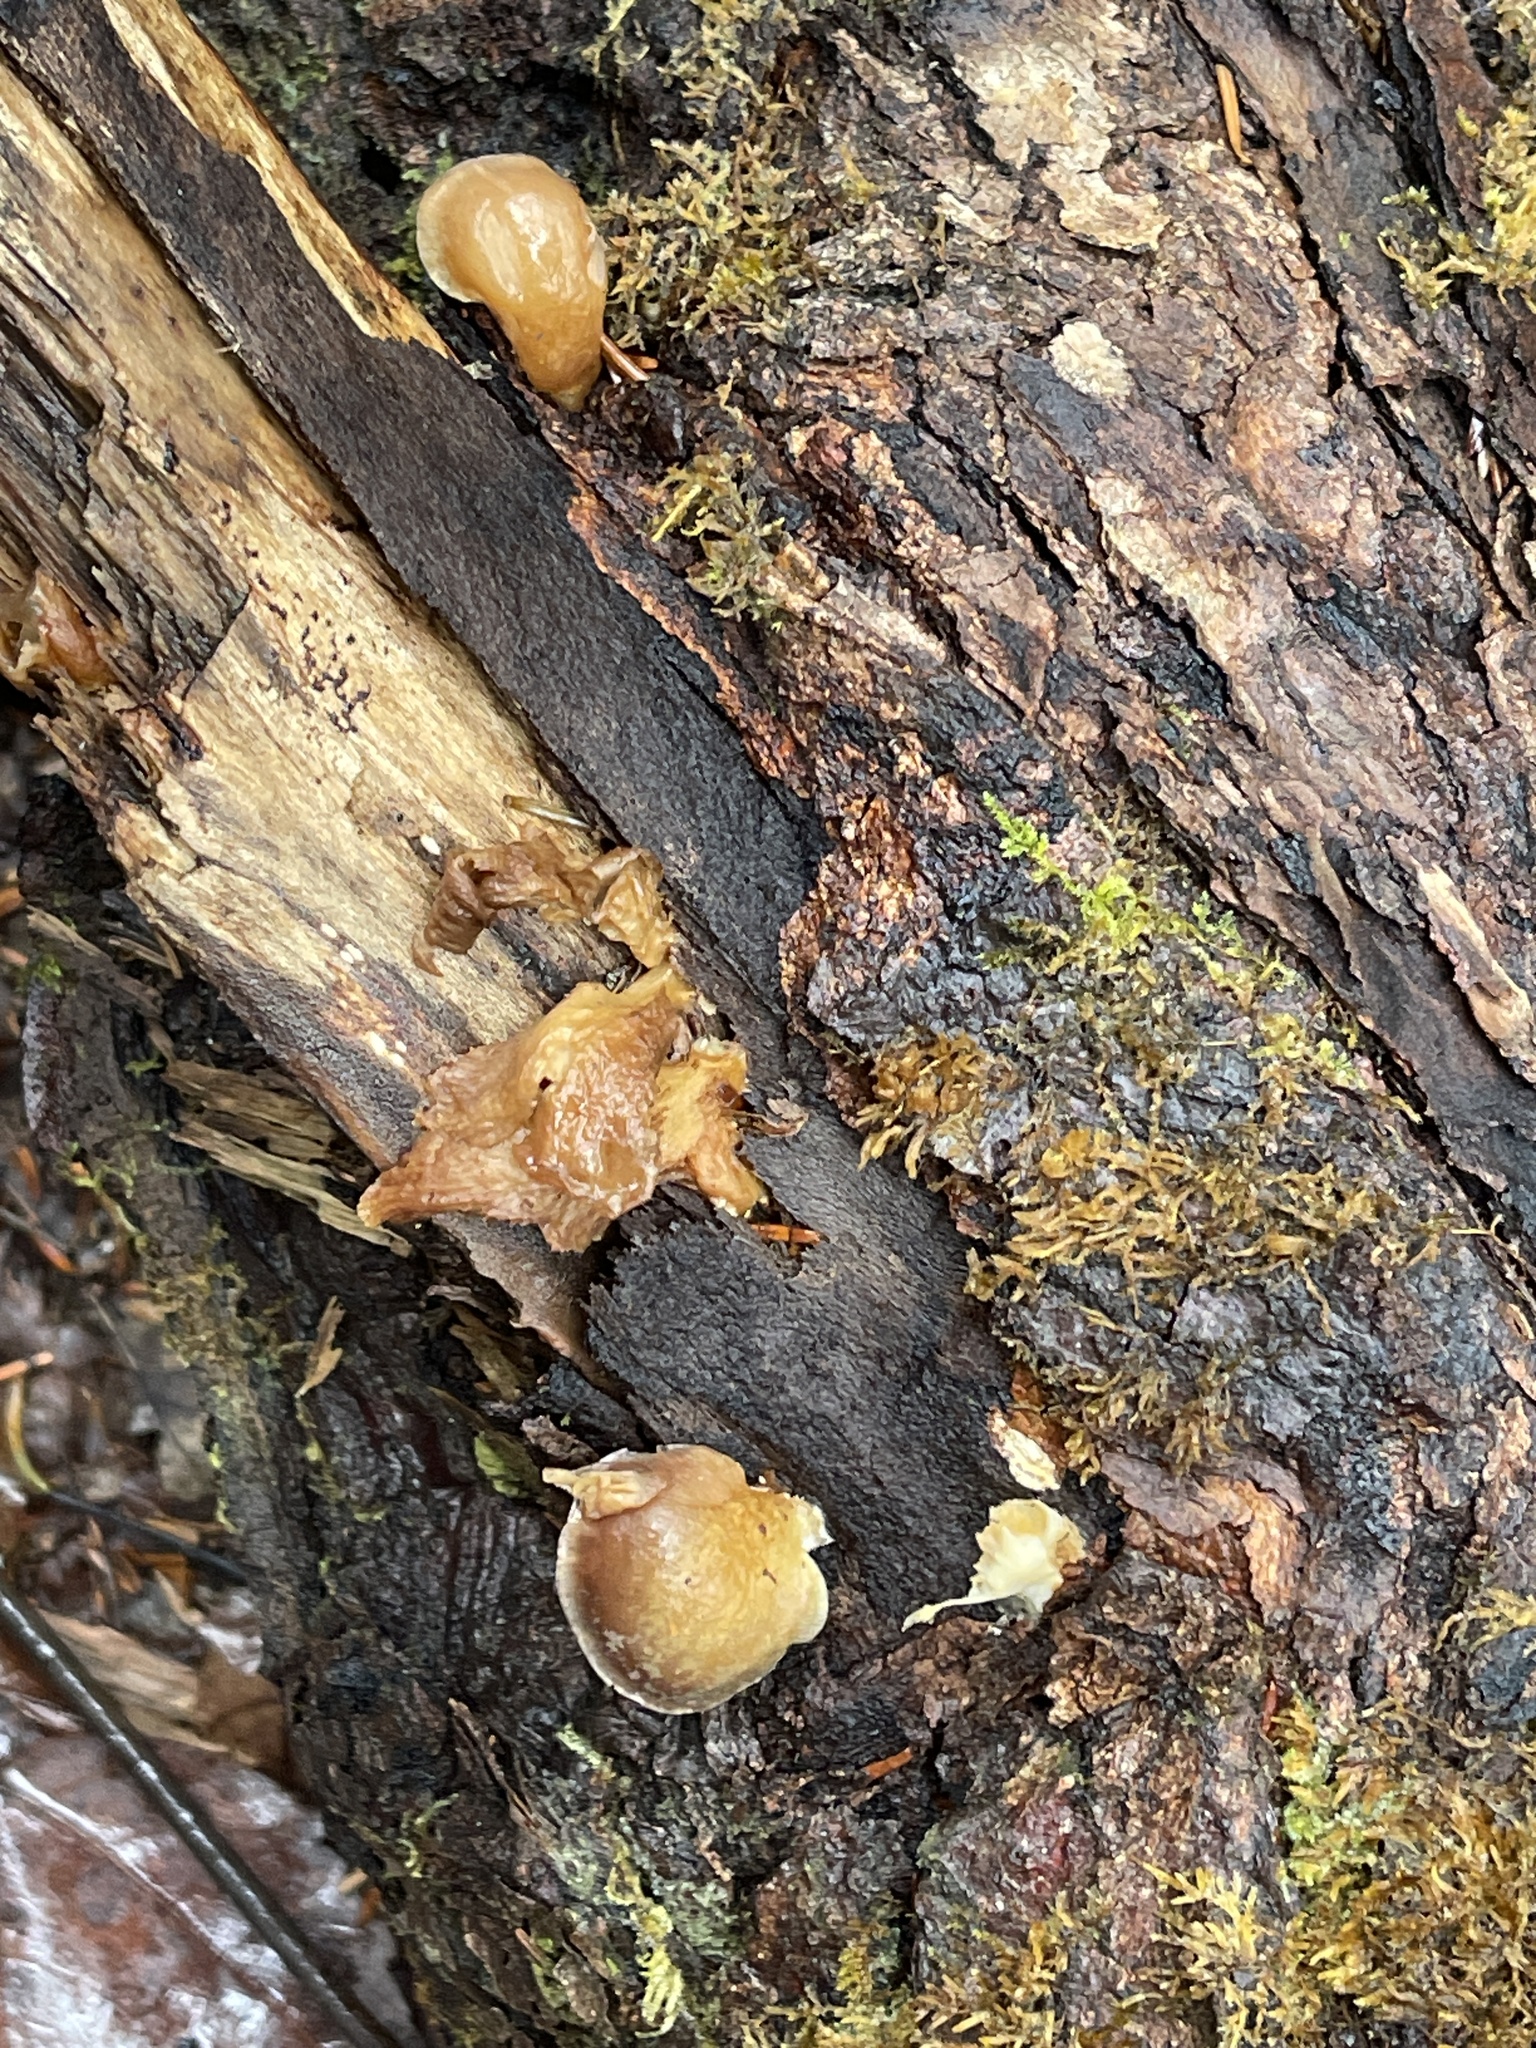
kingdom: Fungi
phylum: Basidiomycota
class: Agaricomycetes
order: Agaricales
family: Sarcomyxaceae
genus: Sarcomyxa
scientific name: Sarcomyxa serotina
